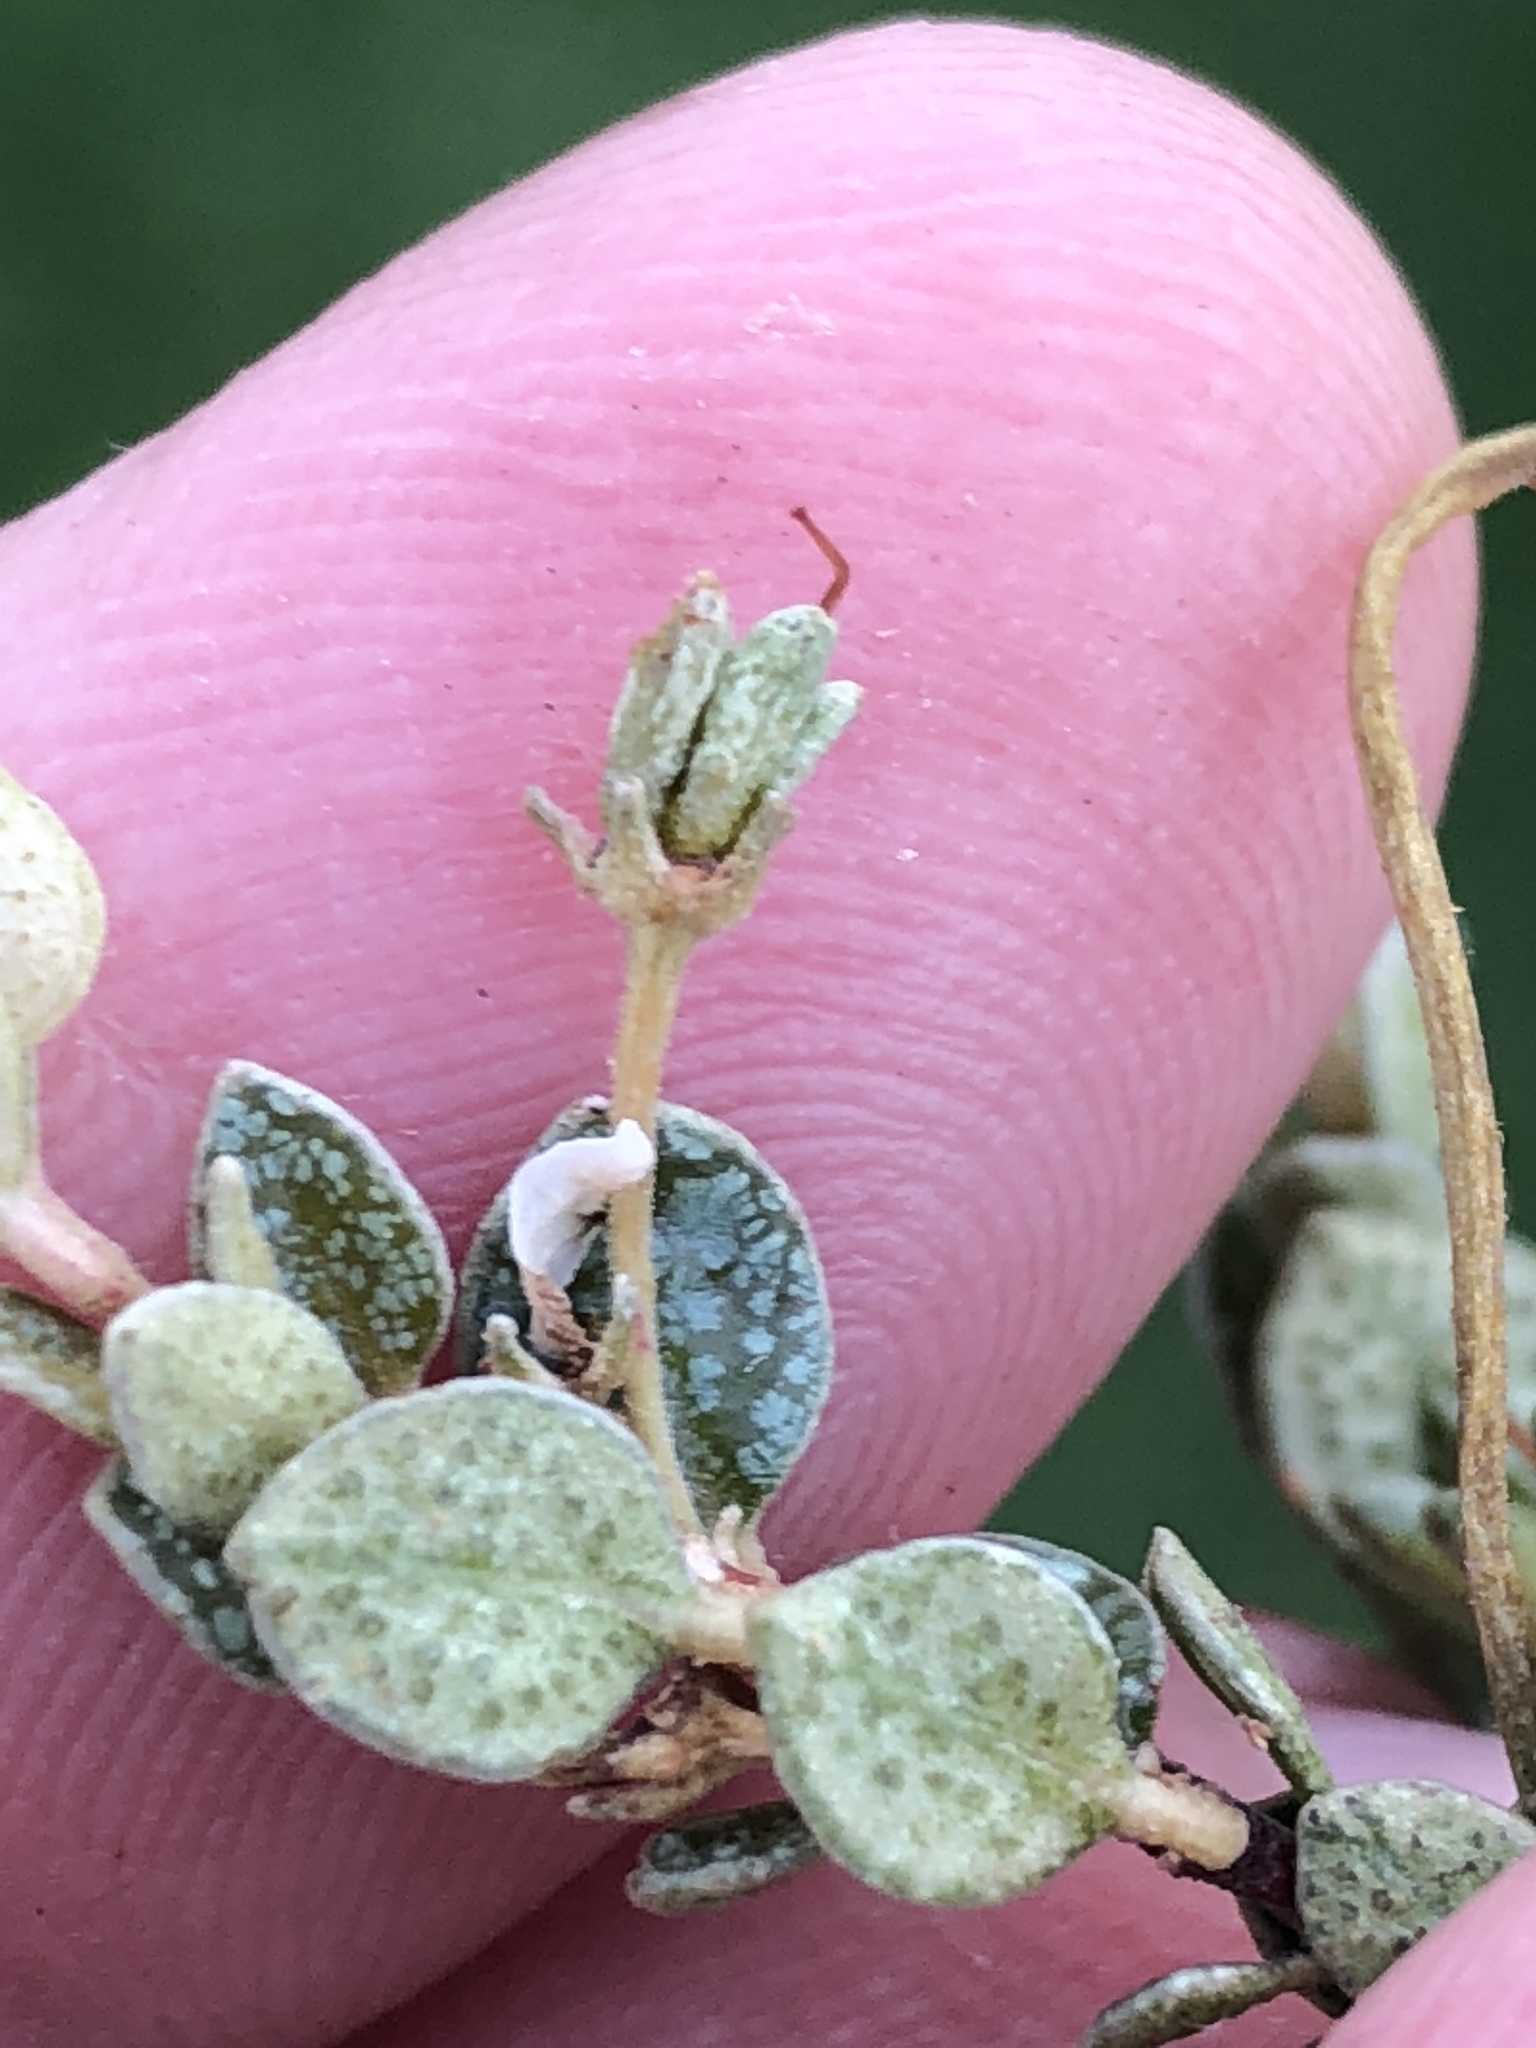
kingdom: Plantae
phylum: Tracheophyta
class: Magnoliopsida
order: Sapindales
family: Rutaceae
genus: Agathosma
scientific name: Agathosma ovata
